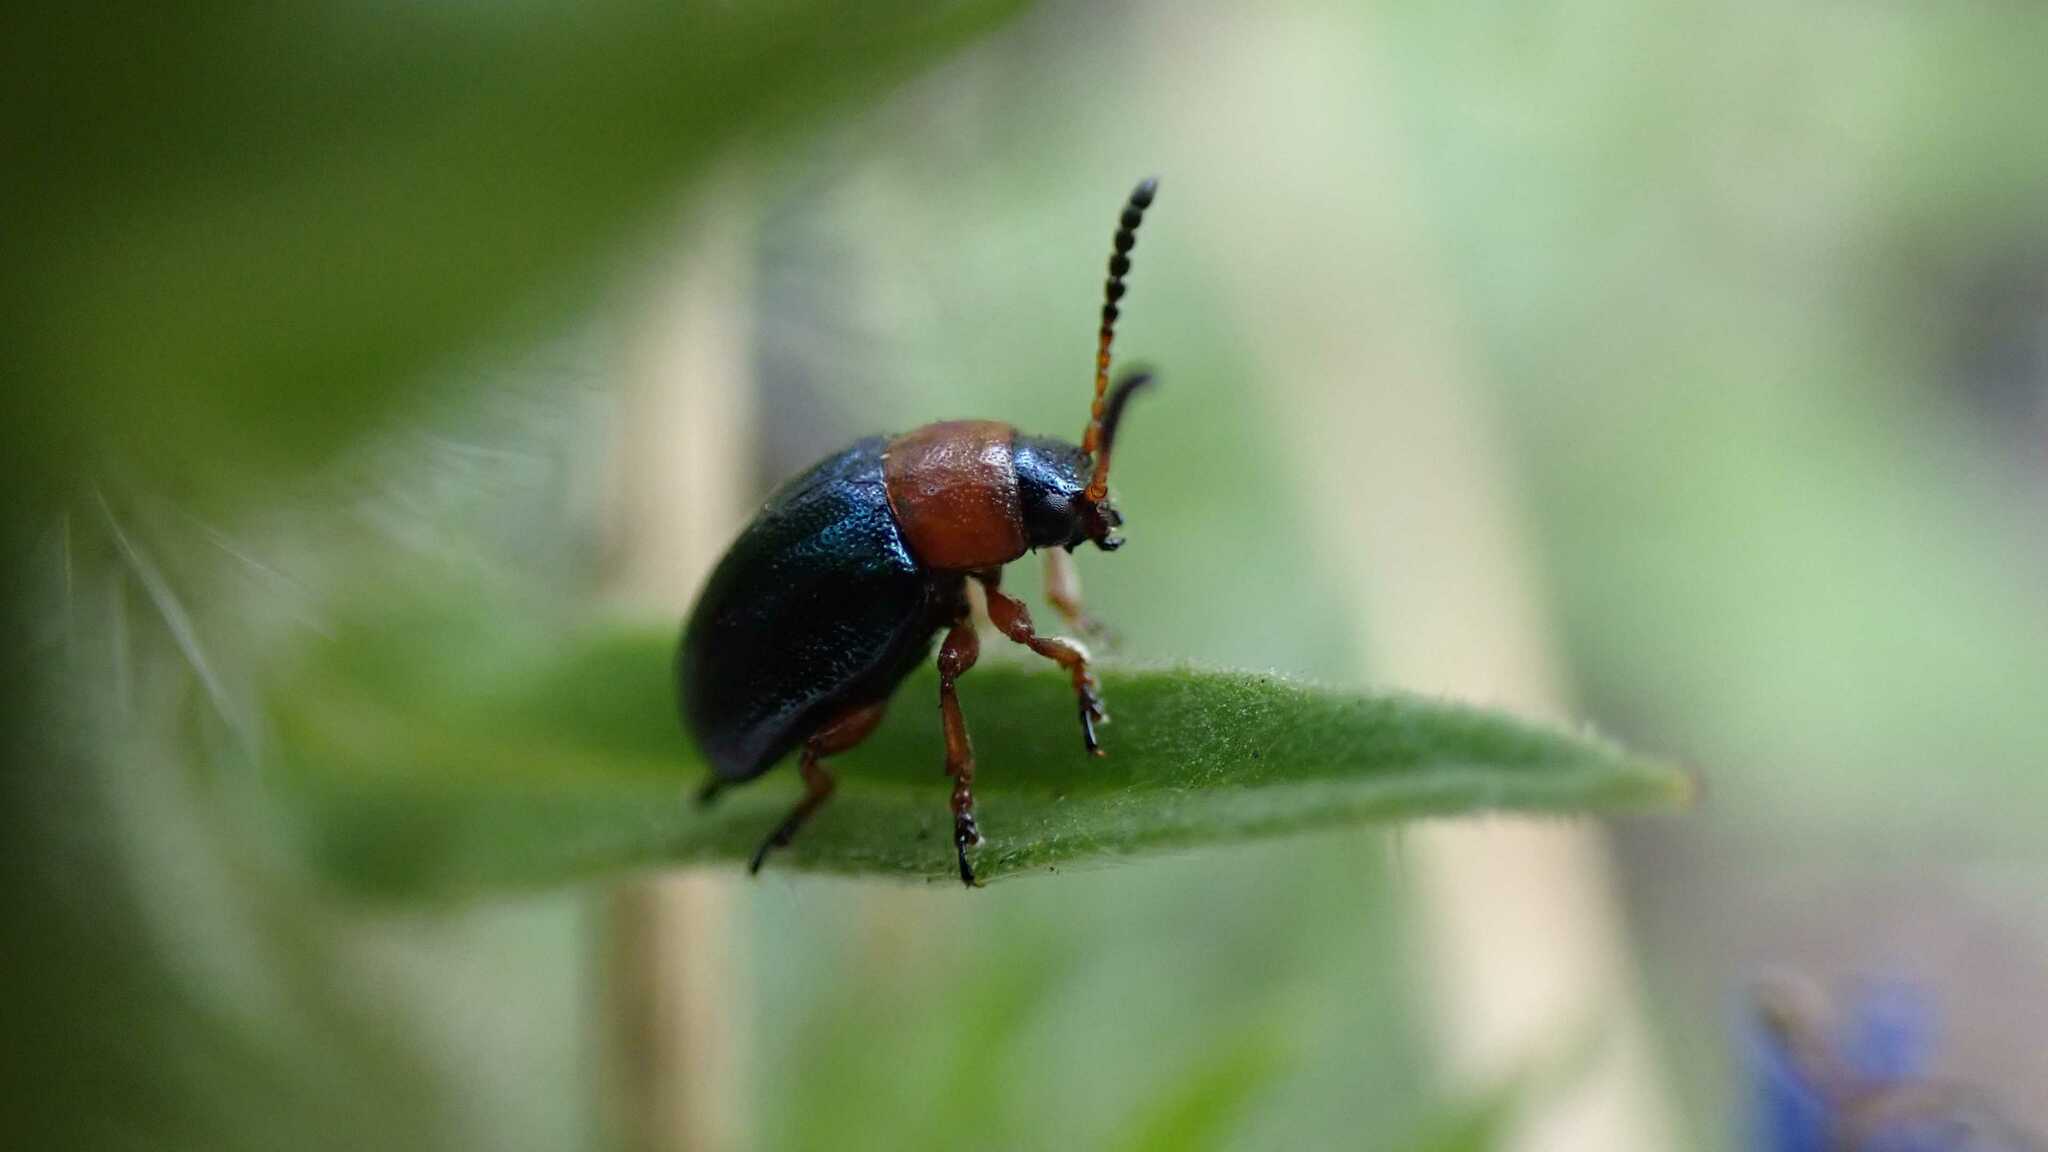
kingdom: Animalia
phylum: Arthropoda
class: Insecta
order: Coleoptera
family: Chrysomelidae
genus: Gastrophysa
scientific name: Gastrophysa polygoni
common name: Knotweed leaf beetle
